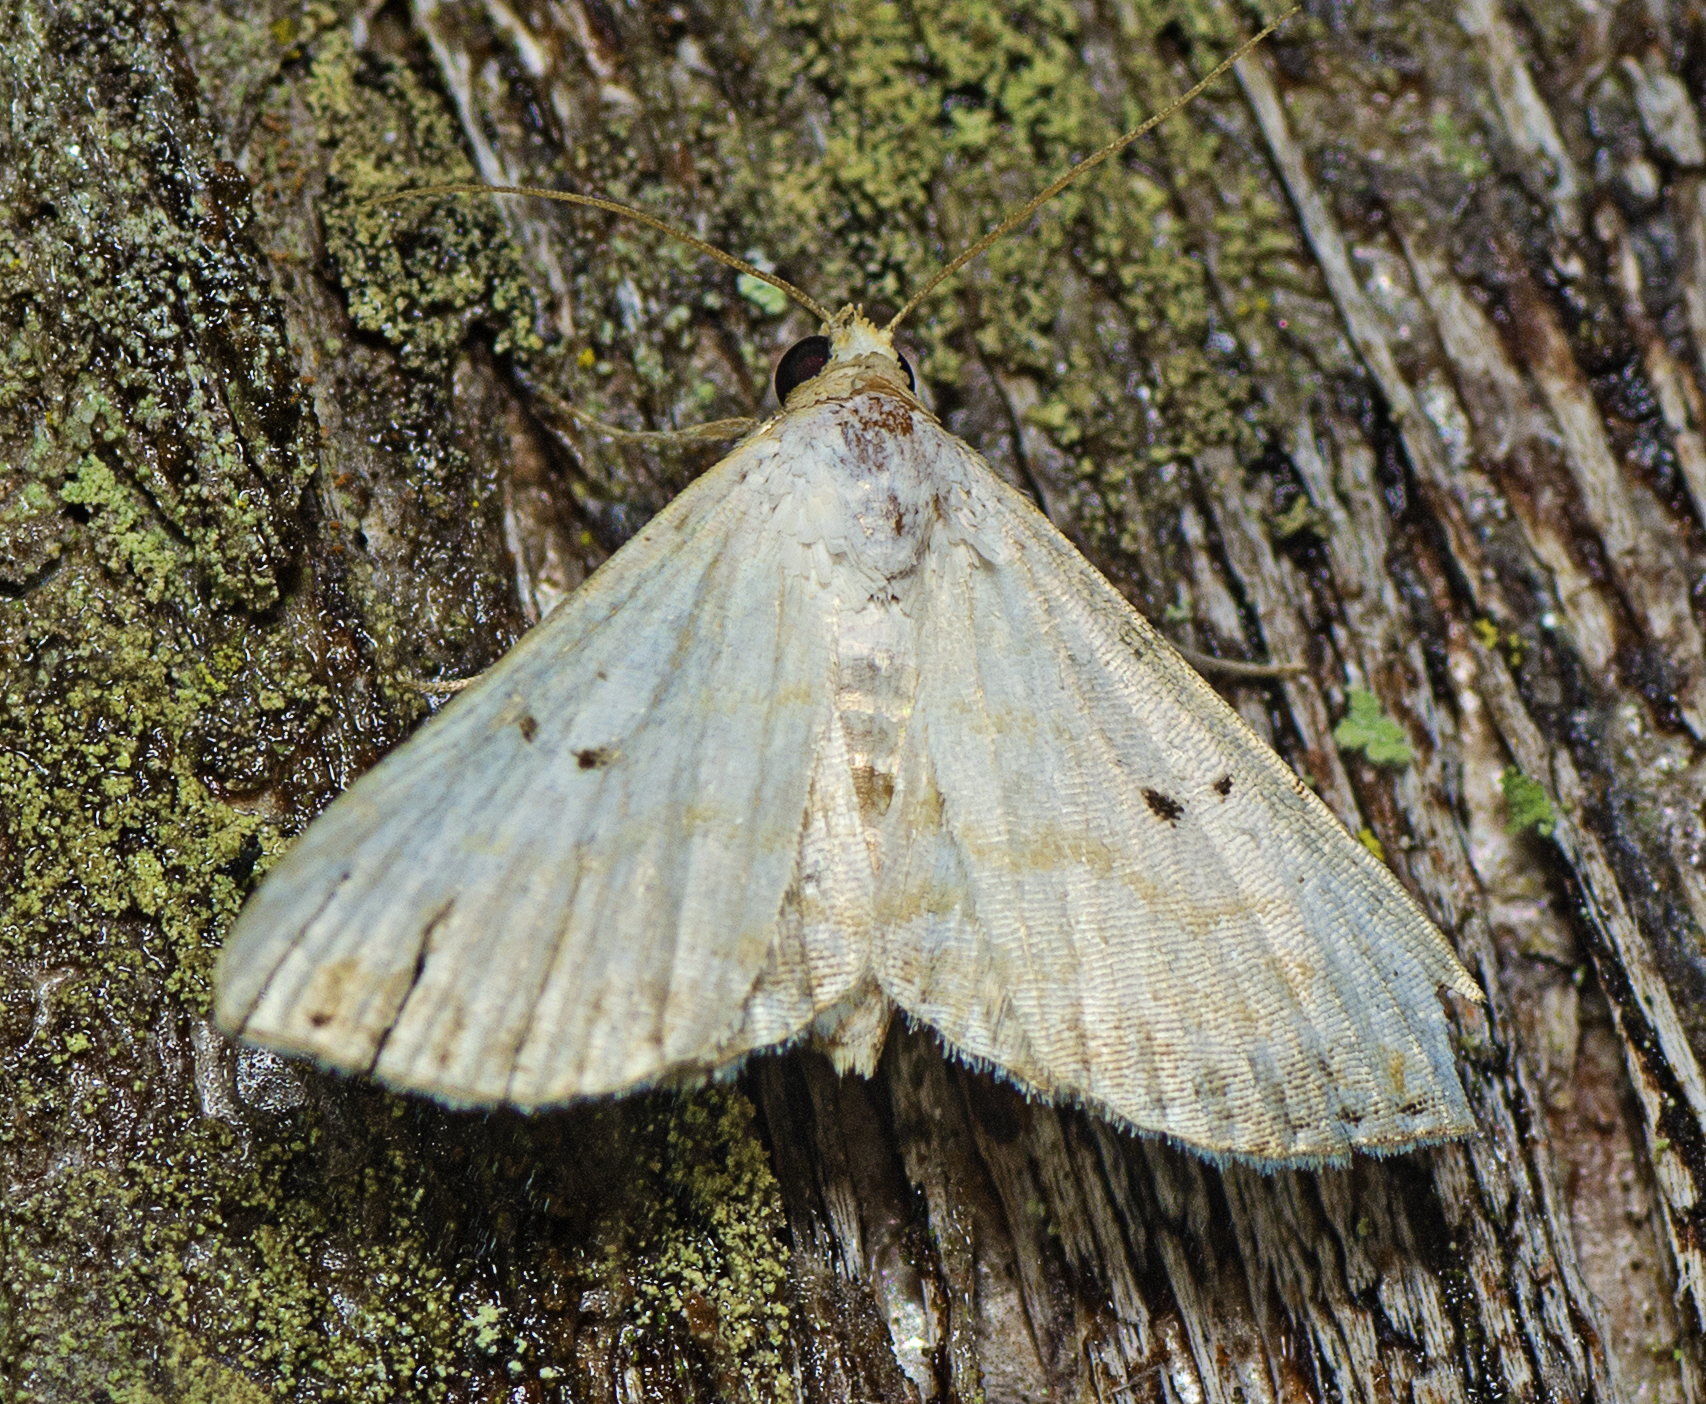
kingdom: Animalia
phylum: Arthropoda
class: Insecta
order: Lepidoptera
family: Noctuidae
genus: Oruza
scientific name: Oruza cariosa
